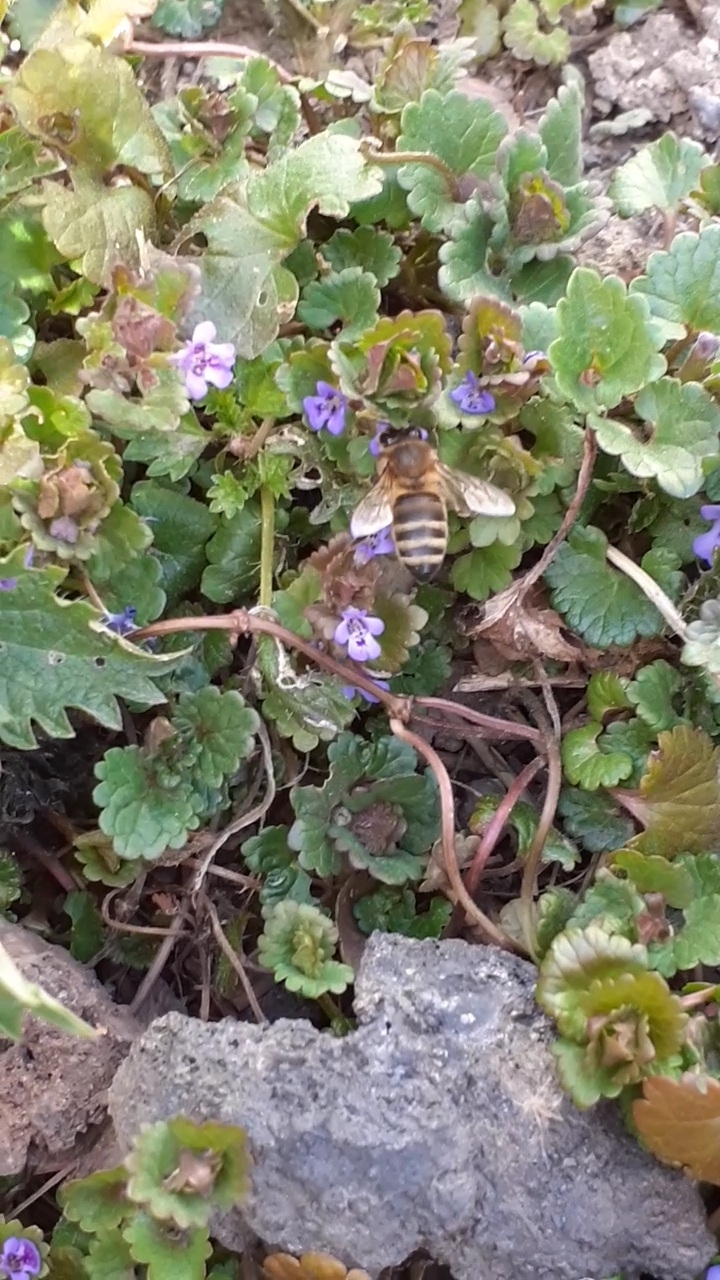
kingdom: Animalia
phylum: Arthropoda
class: Insecta
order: Hymenoptera
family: Apidae
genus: Apis
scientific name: Apis mellifera
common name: Honey bee
